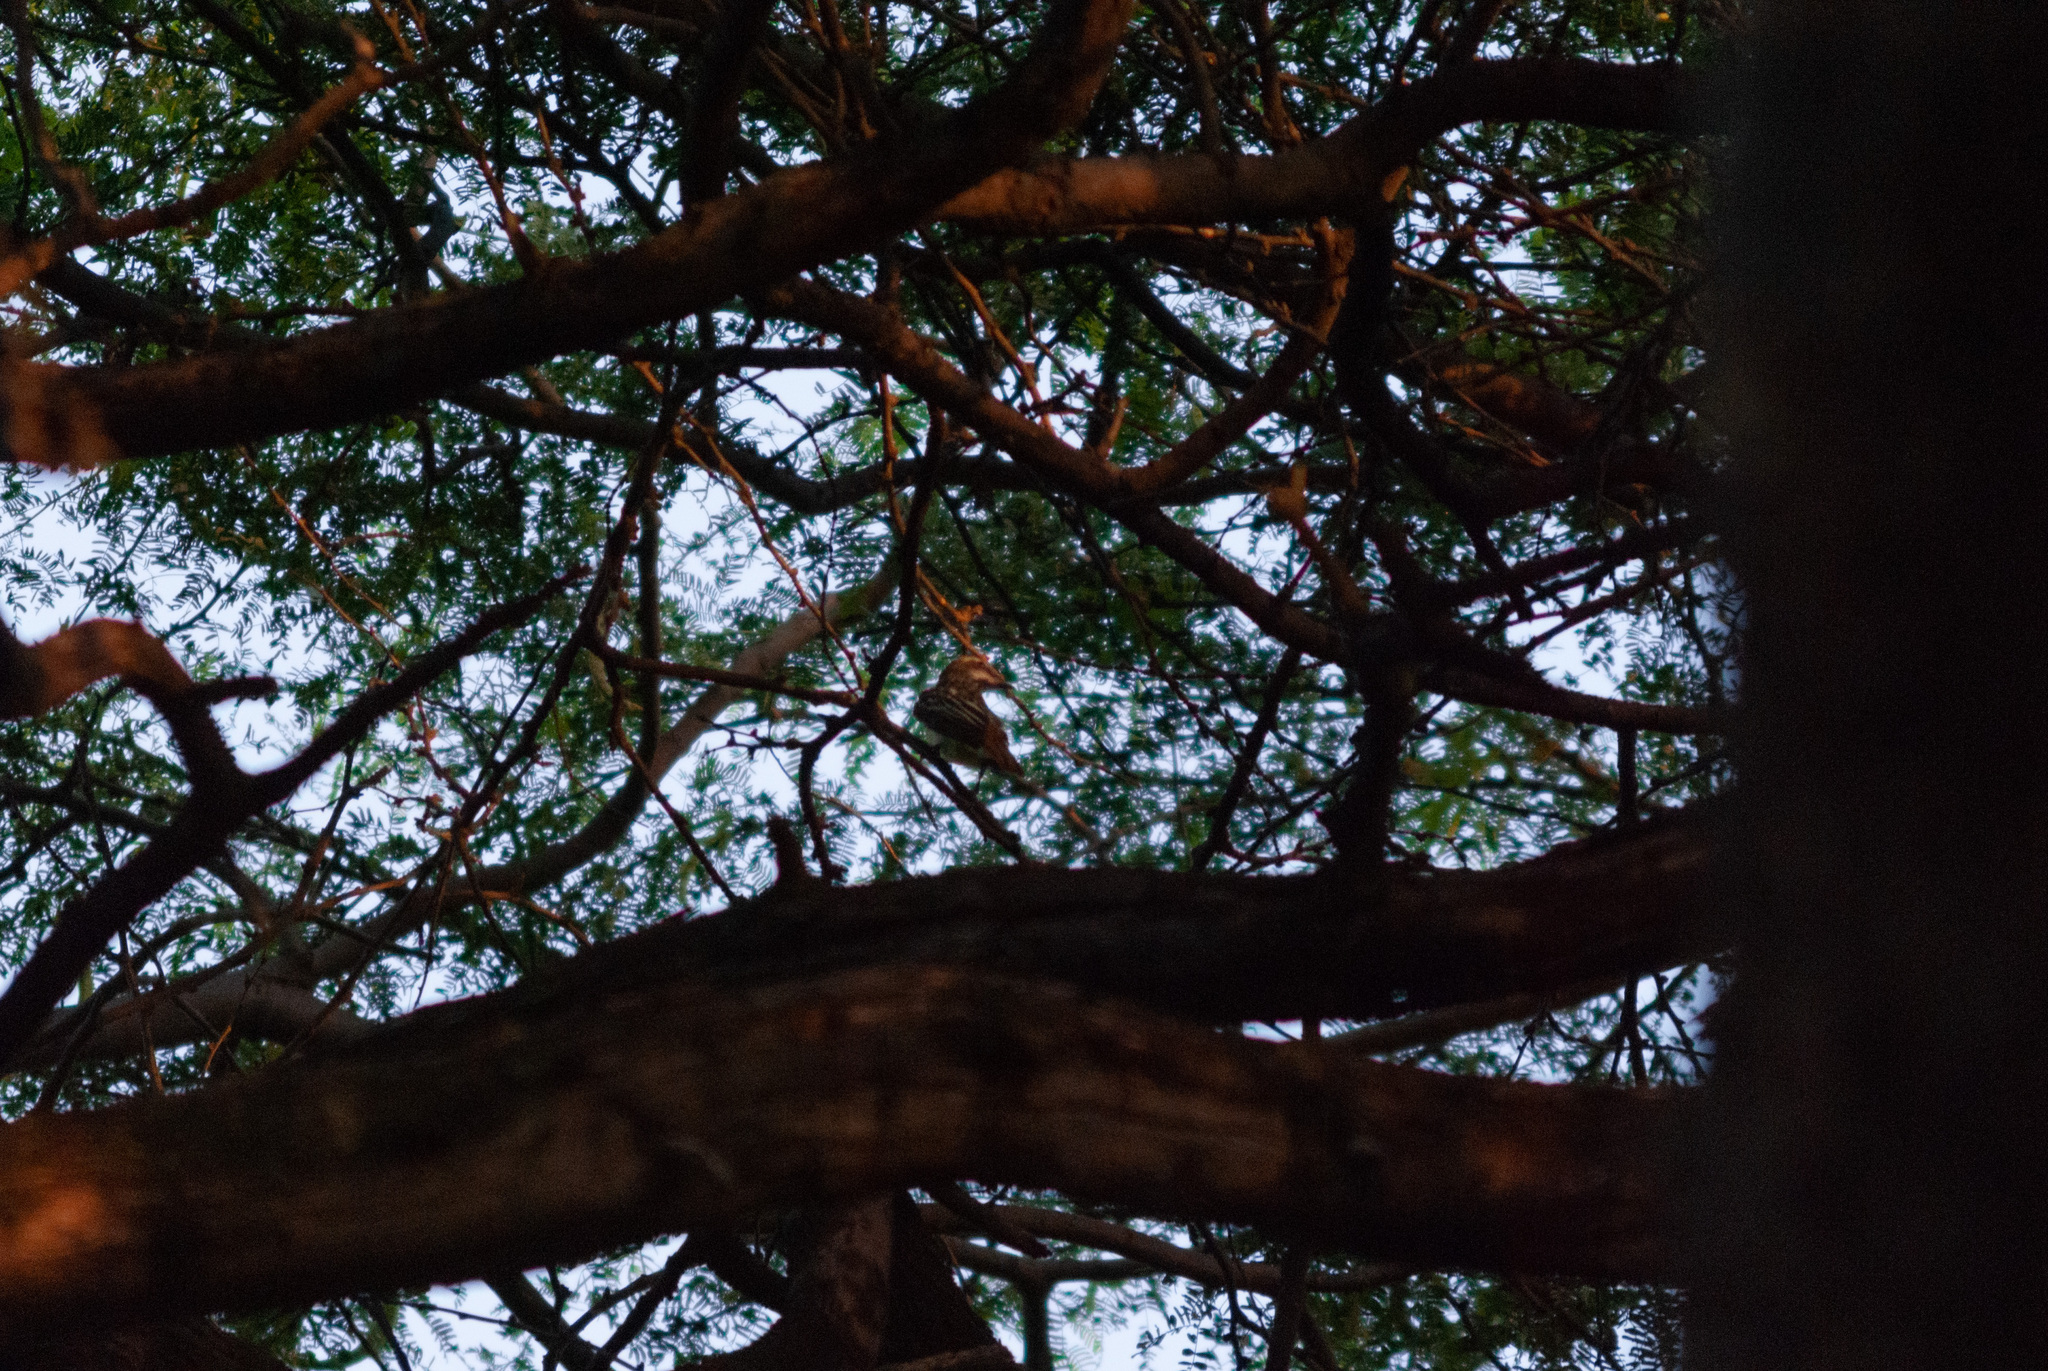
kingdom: Animalia
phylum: Chordata
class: Aves
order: Passeriformes
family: Tyrannidae
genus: Myiodynastes
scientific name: Myiodynastes luteiventris
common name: Sulphur-bellied flycatcher
